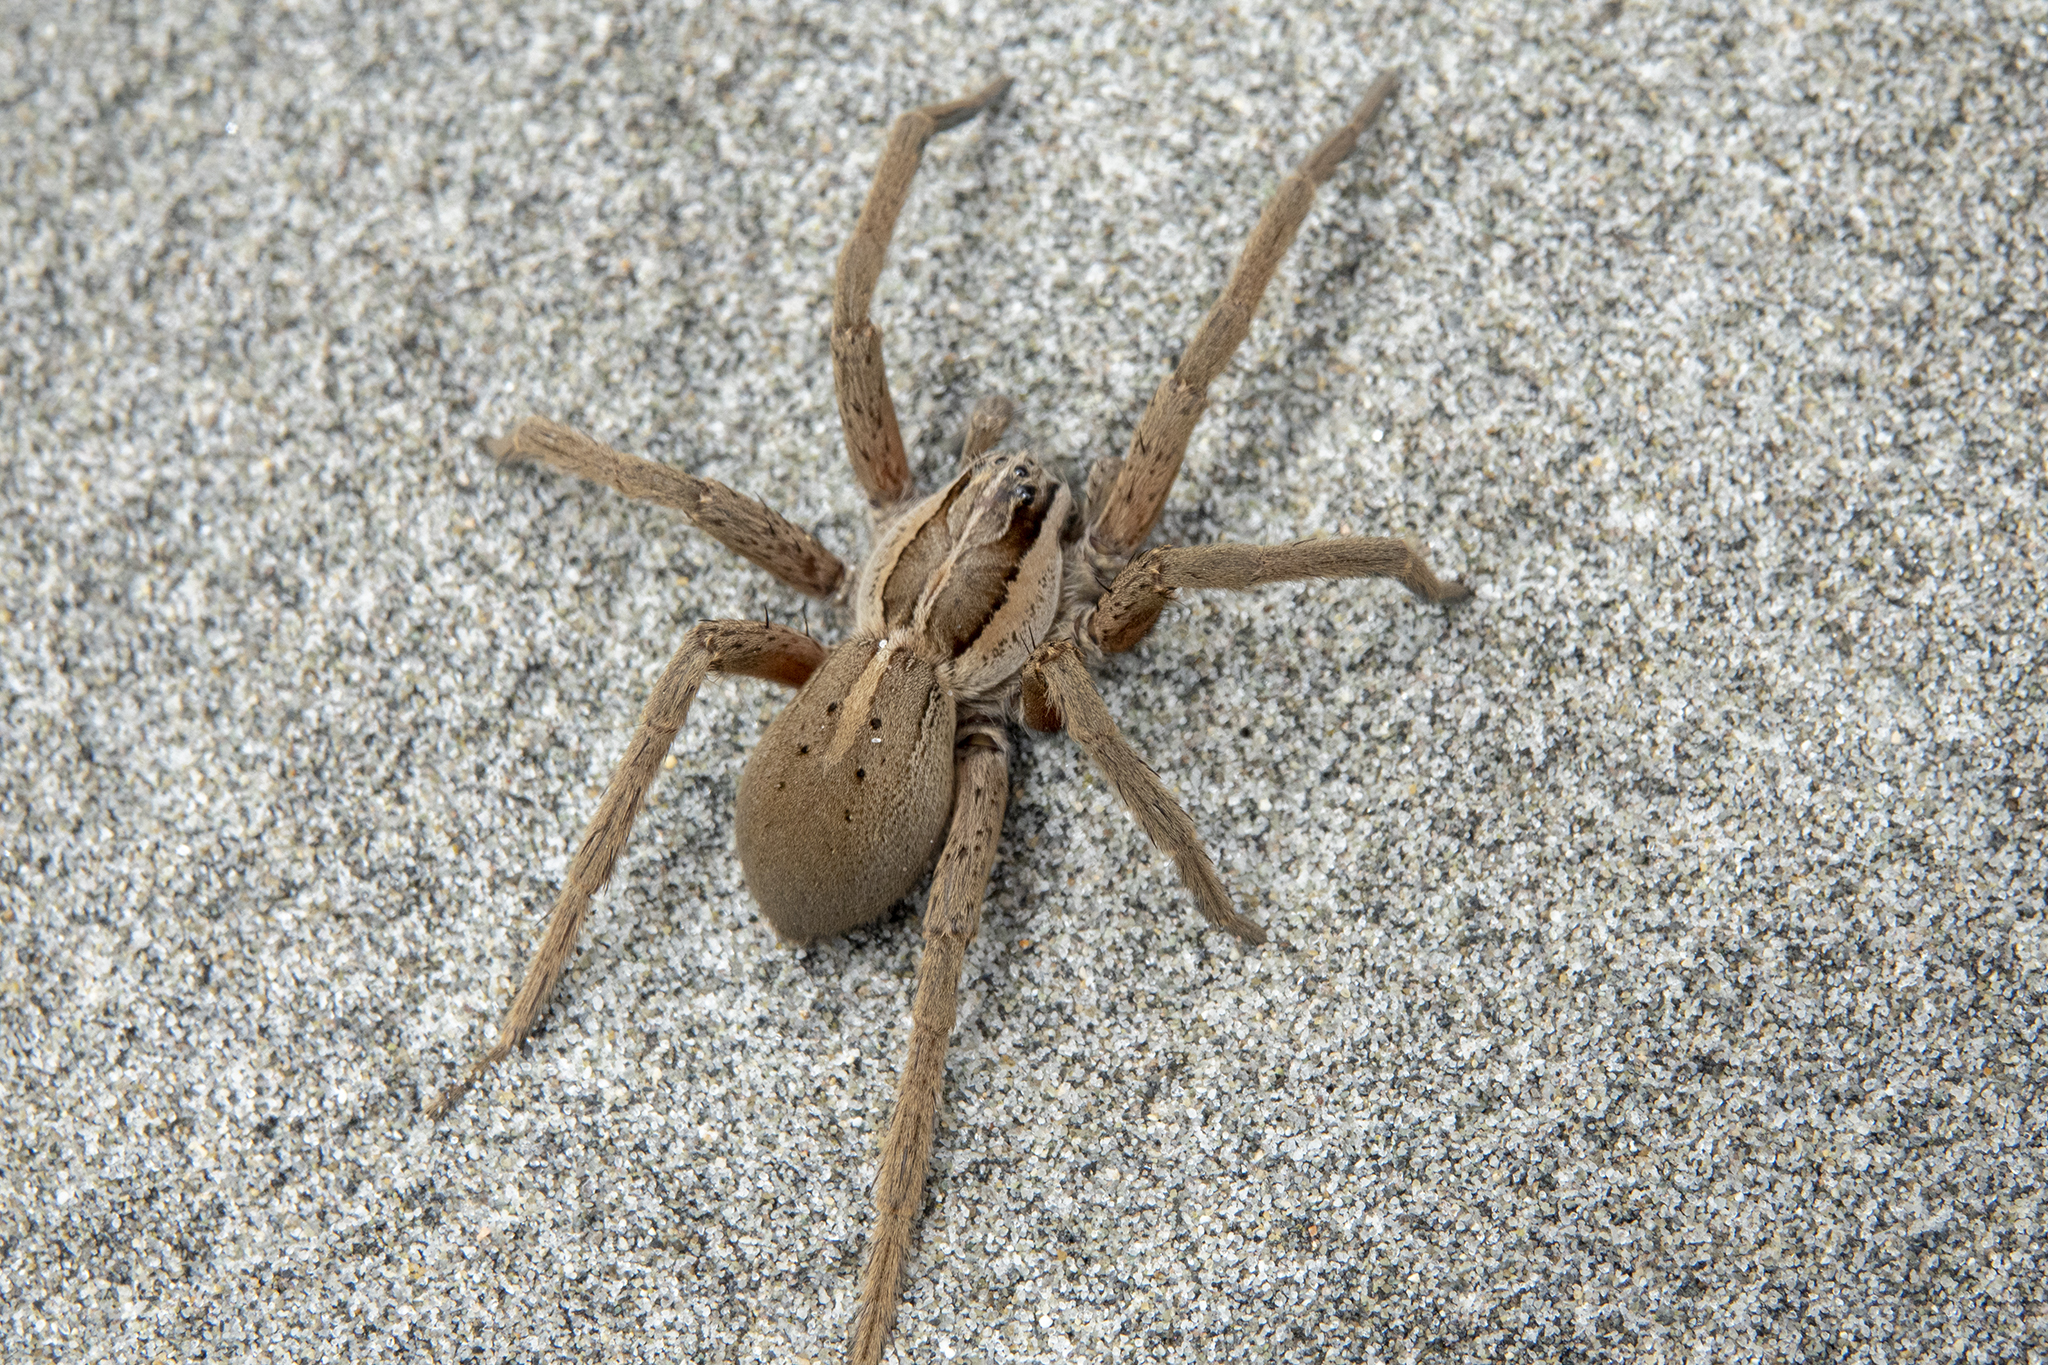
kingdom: Animalia
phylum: Arthropoda
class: Arachnida
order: Araneae
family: Pisauridae
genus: Dolomedes
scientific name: Dolomedes minor
